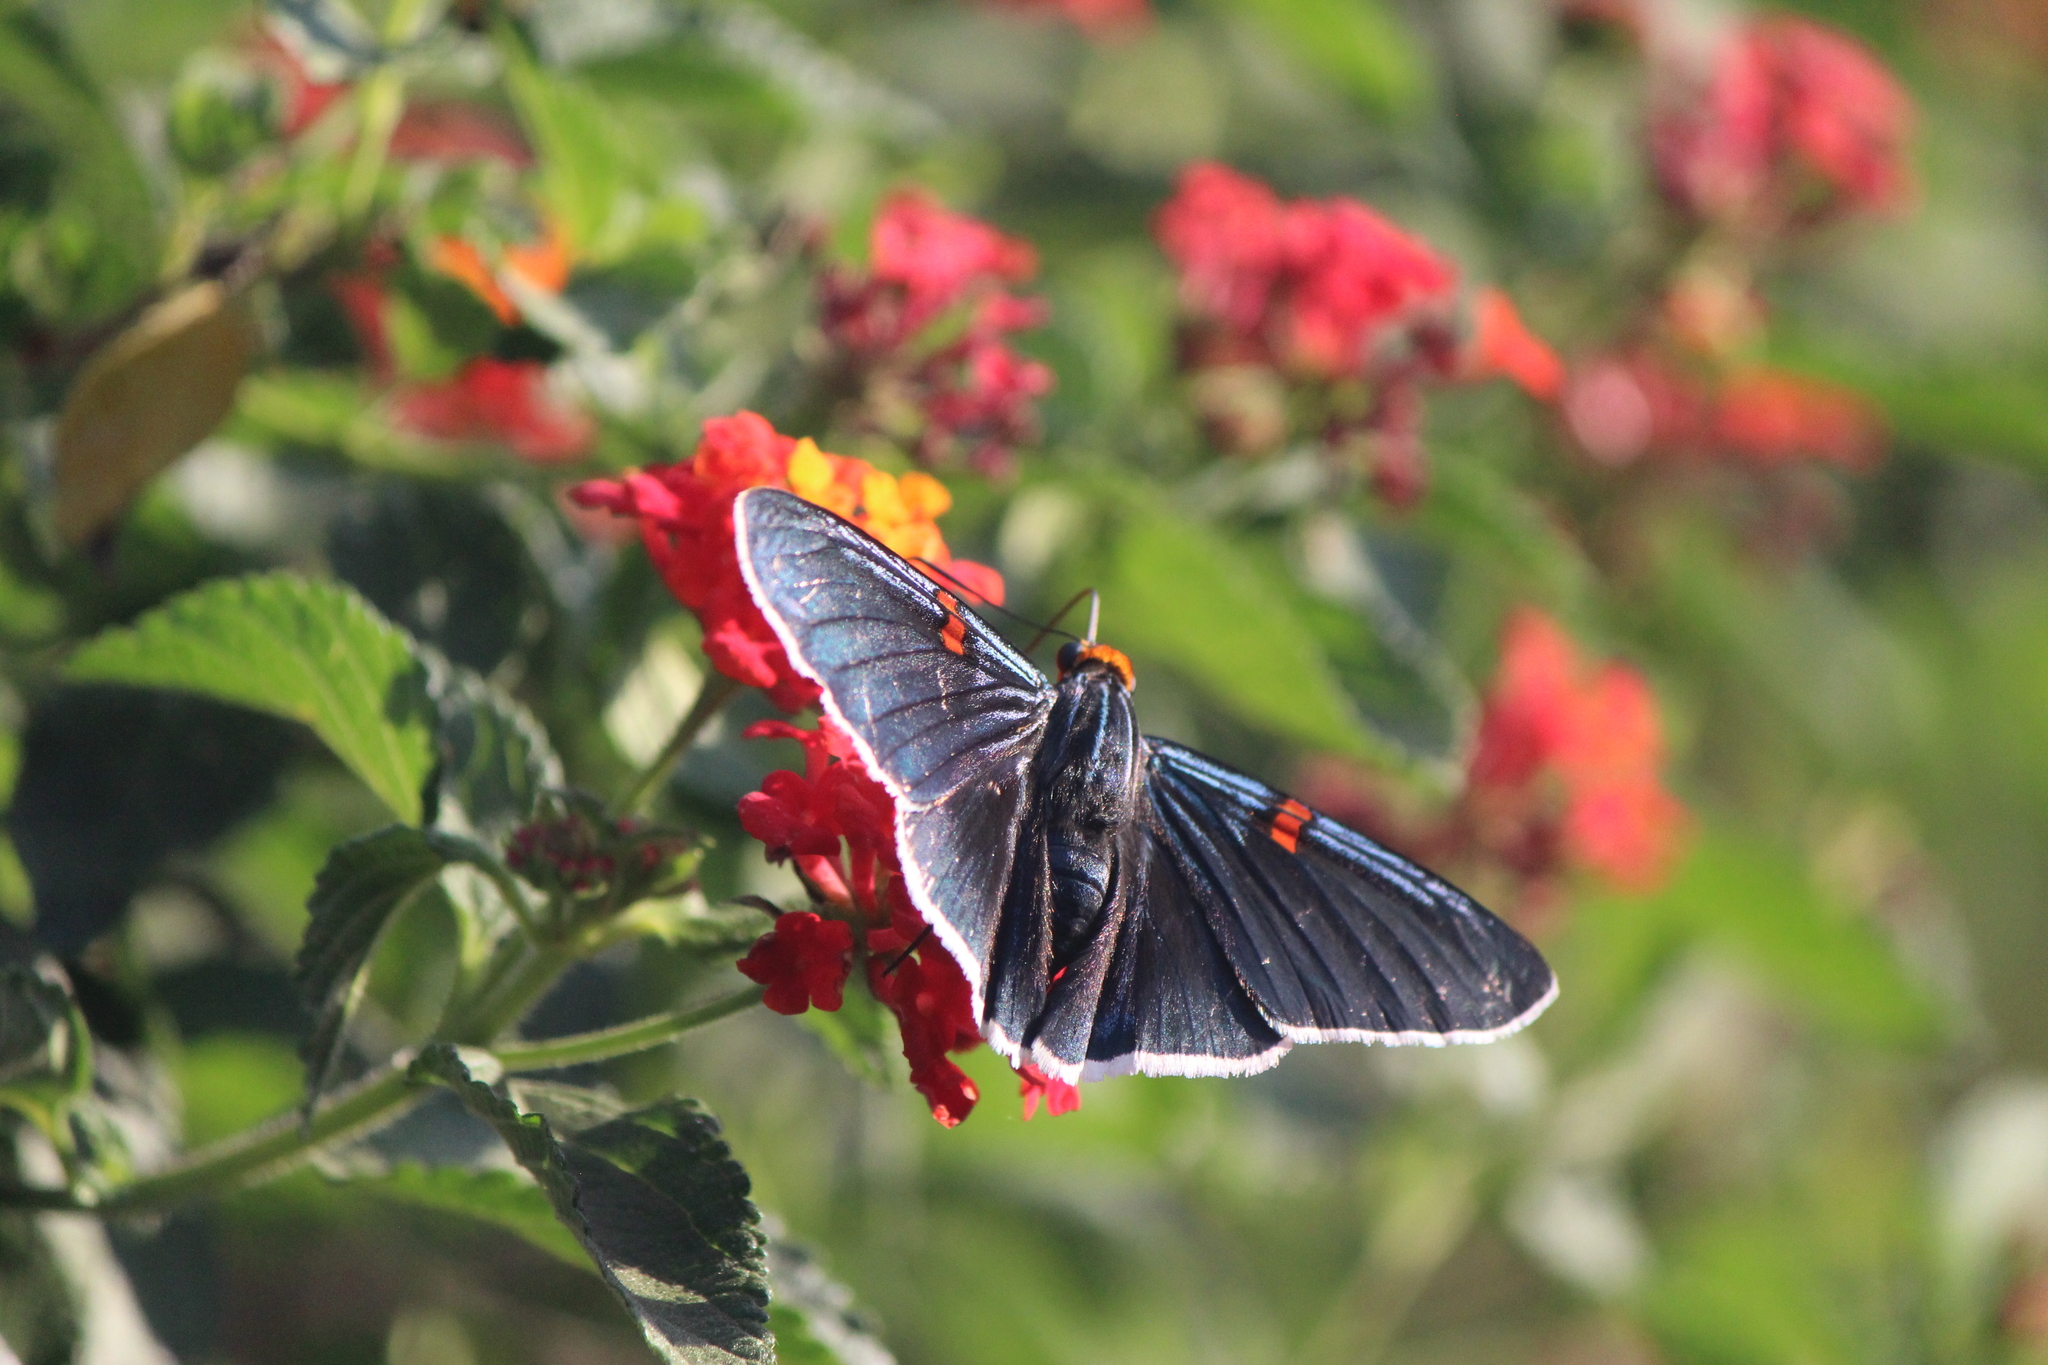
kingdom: Animalia
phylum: Arthropoda
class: Insecta
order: Lepidoptera
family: Hesperiidae
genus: Phocides
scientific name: Phocides lilea
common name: Guava skipper
